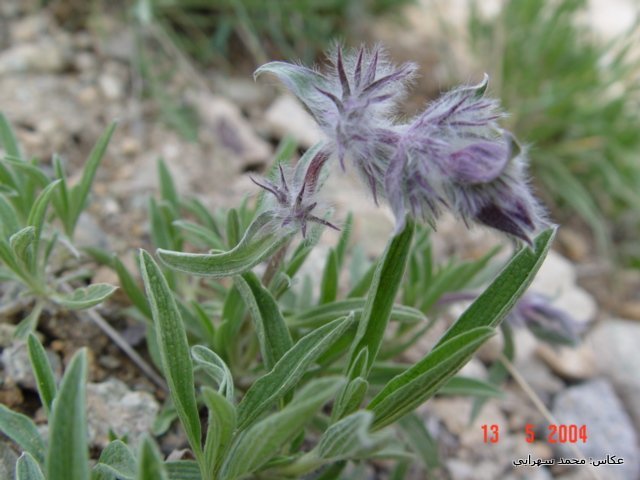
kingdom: Plantae
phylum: Tracheophyta
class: Magnoliopsida
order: Lamiales
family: Lamiaceae
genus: Stachys
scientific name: Stachys lavandulifolia
